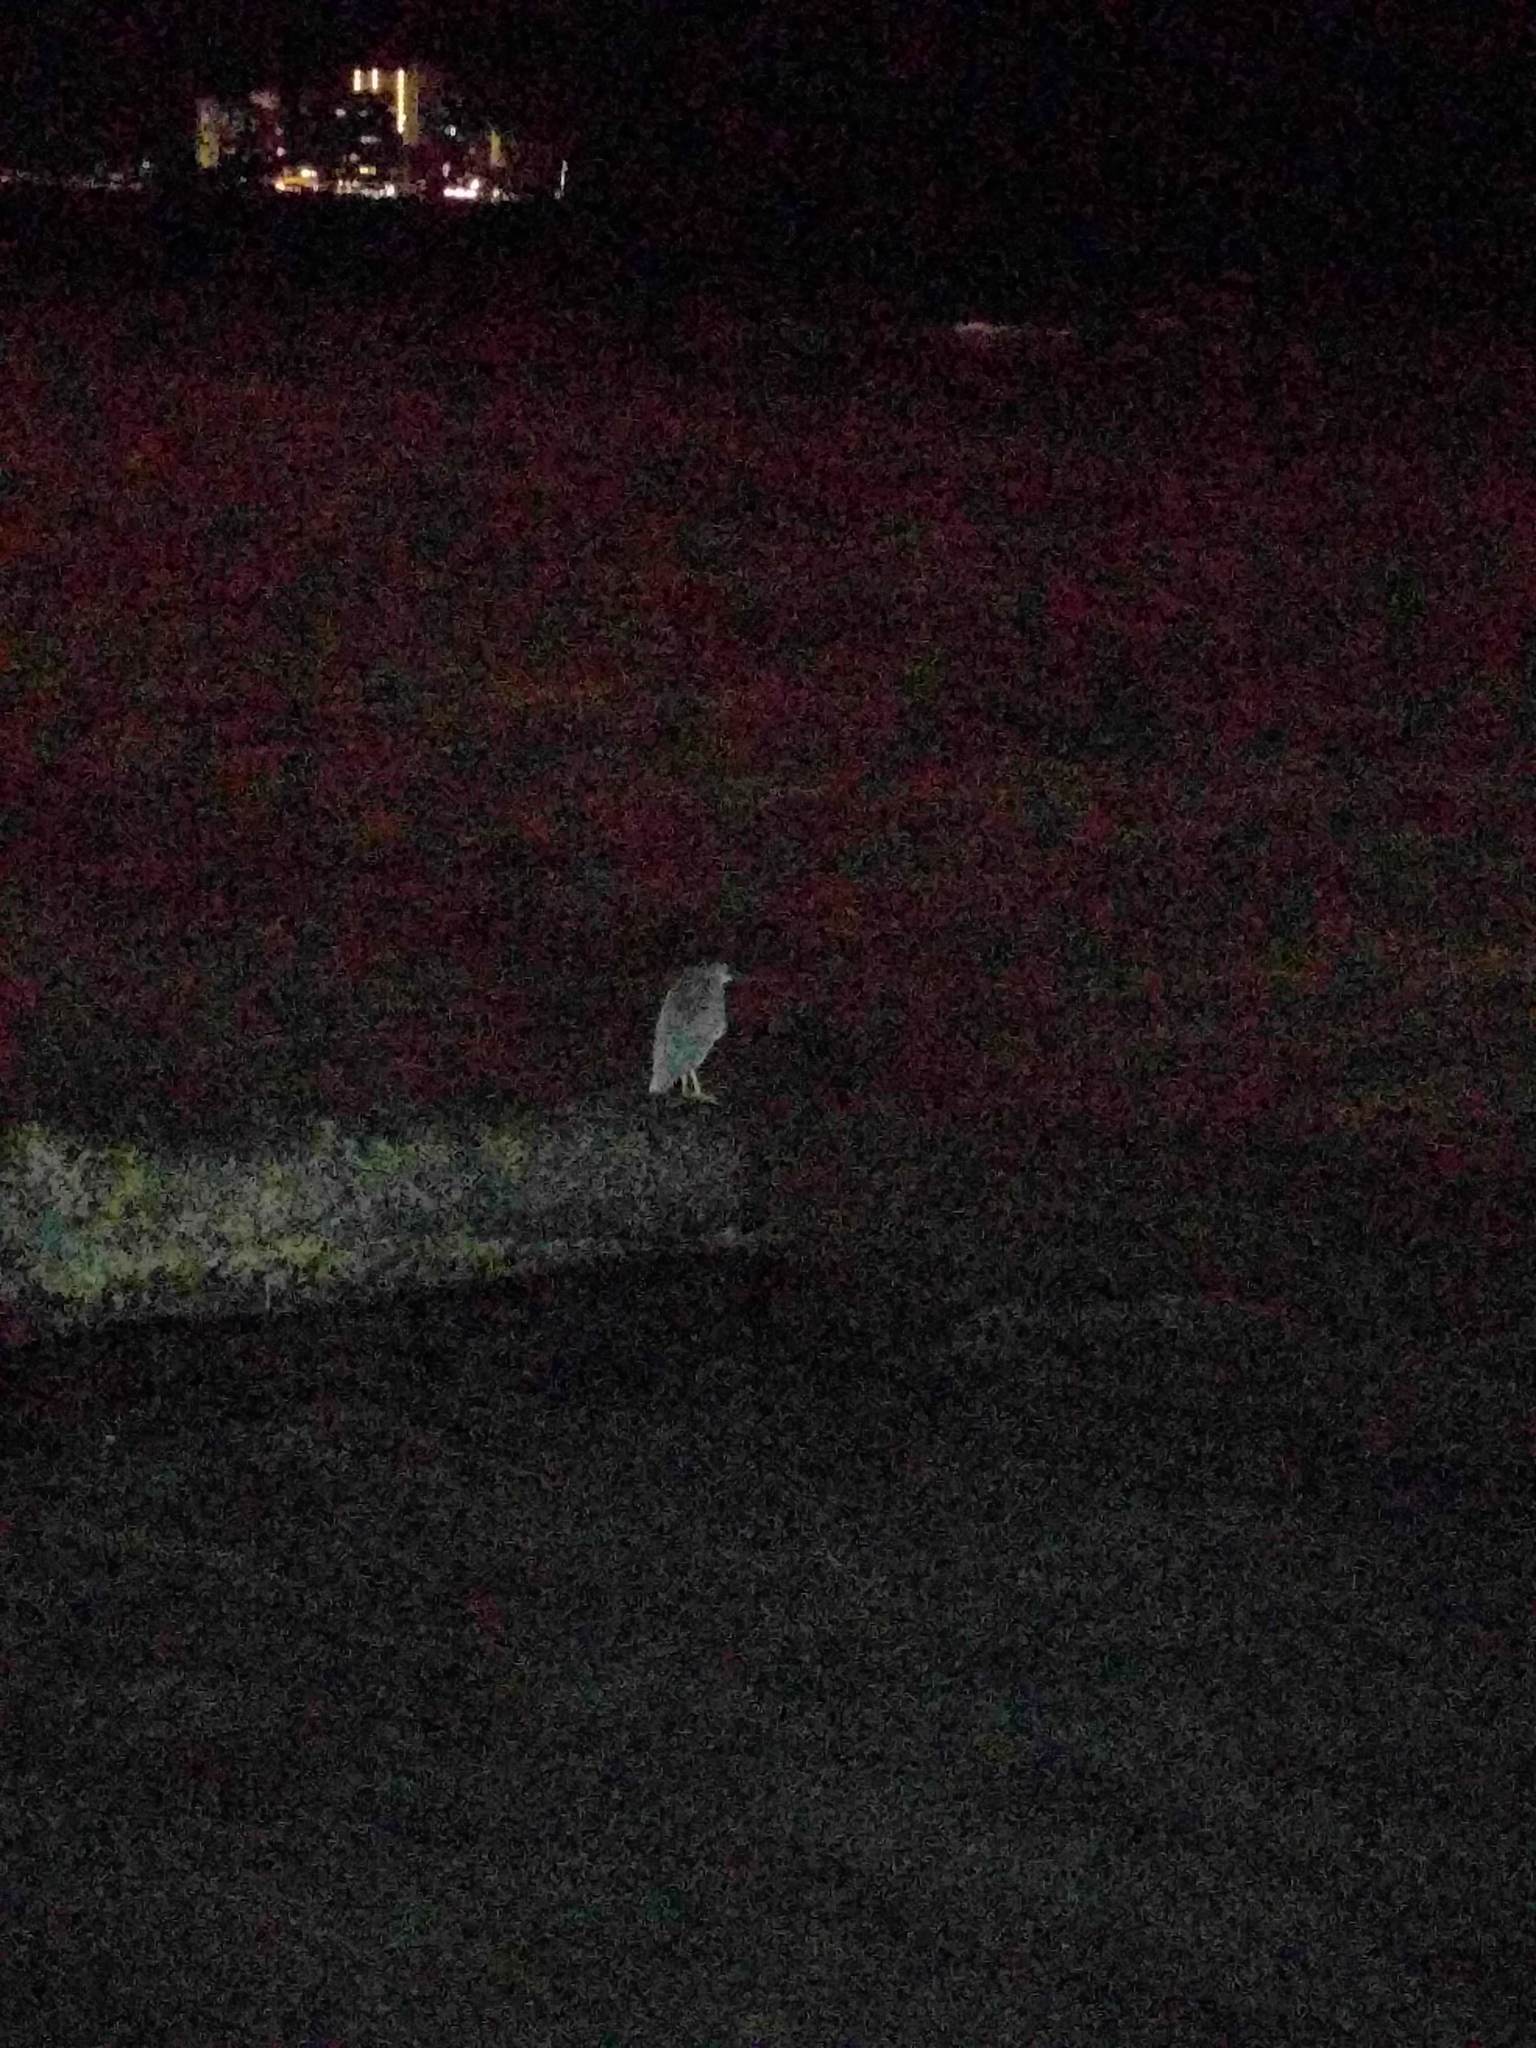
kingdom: Animalia
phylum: Chordata
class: Aves
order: Pelecaniformes
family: Ardeidae
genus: Nycticorax
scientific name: Nycticorax nycticorax
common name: Black-crowned night heron
